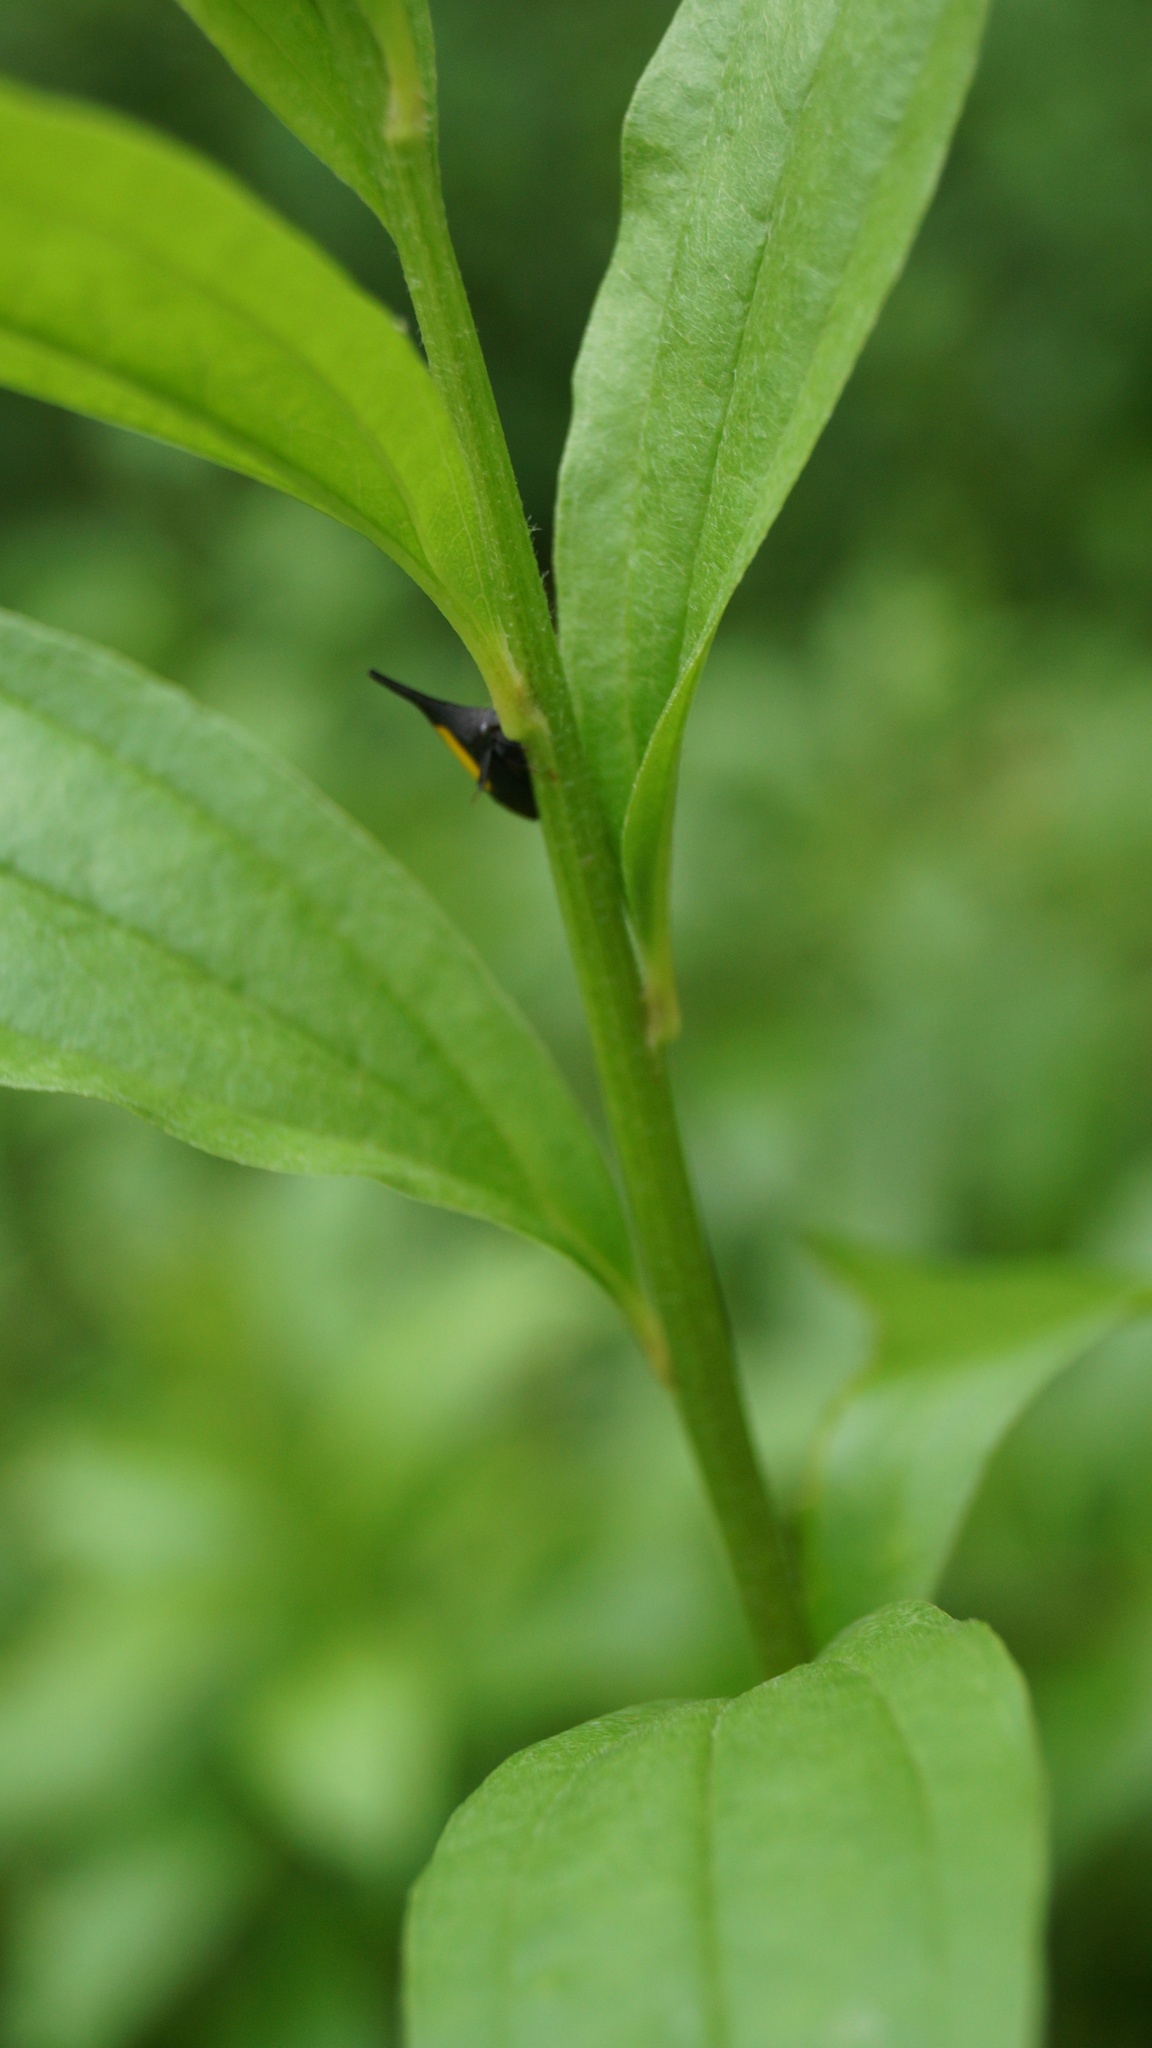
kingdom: Animalia
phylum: Arthropoda
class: Insecta
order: Hemiptera
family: Membracidae
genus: Enchenopa
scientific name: Enchenopa ignidorsum
